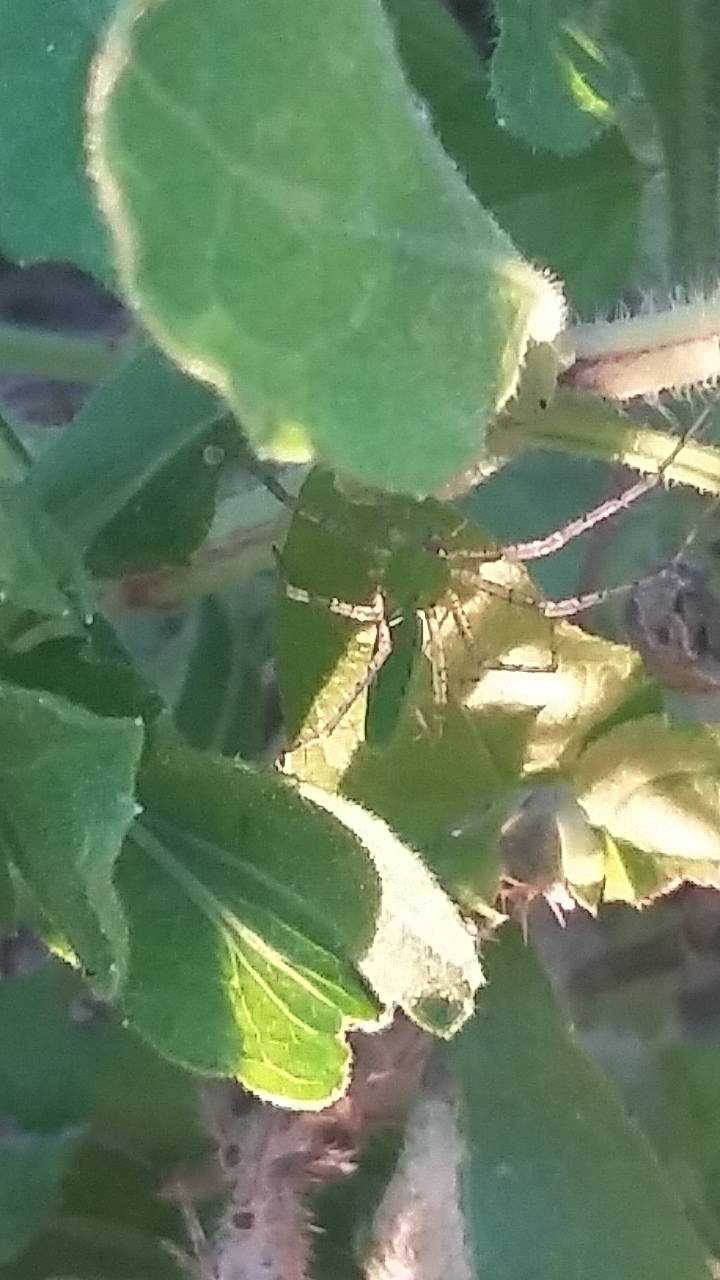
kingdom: Animalia
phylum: Arthropoda
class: Arachnida
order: Araneae
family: Oxyopidae
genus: Peucetia
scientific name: Peucetia viridans
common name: Lynx spiders
